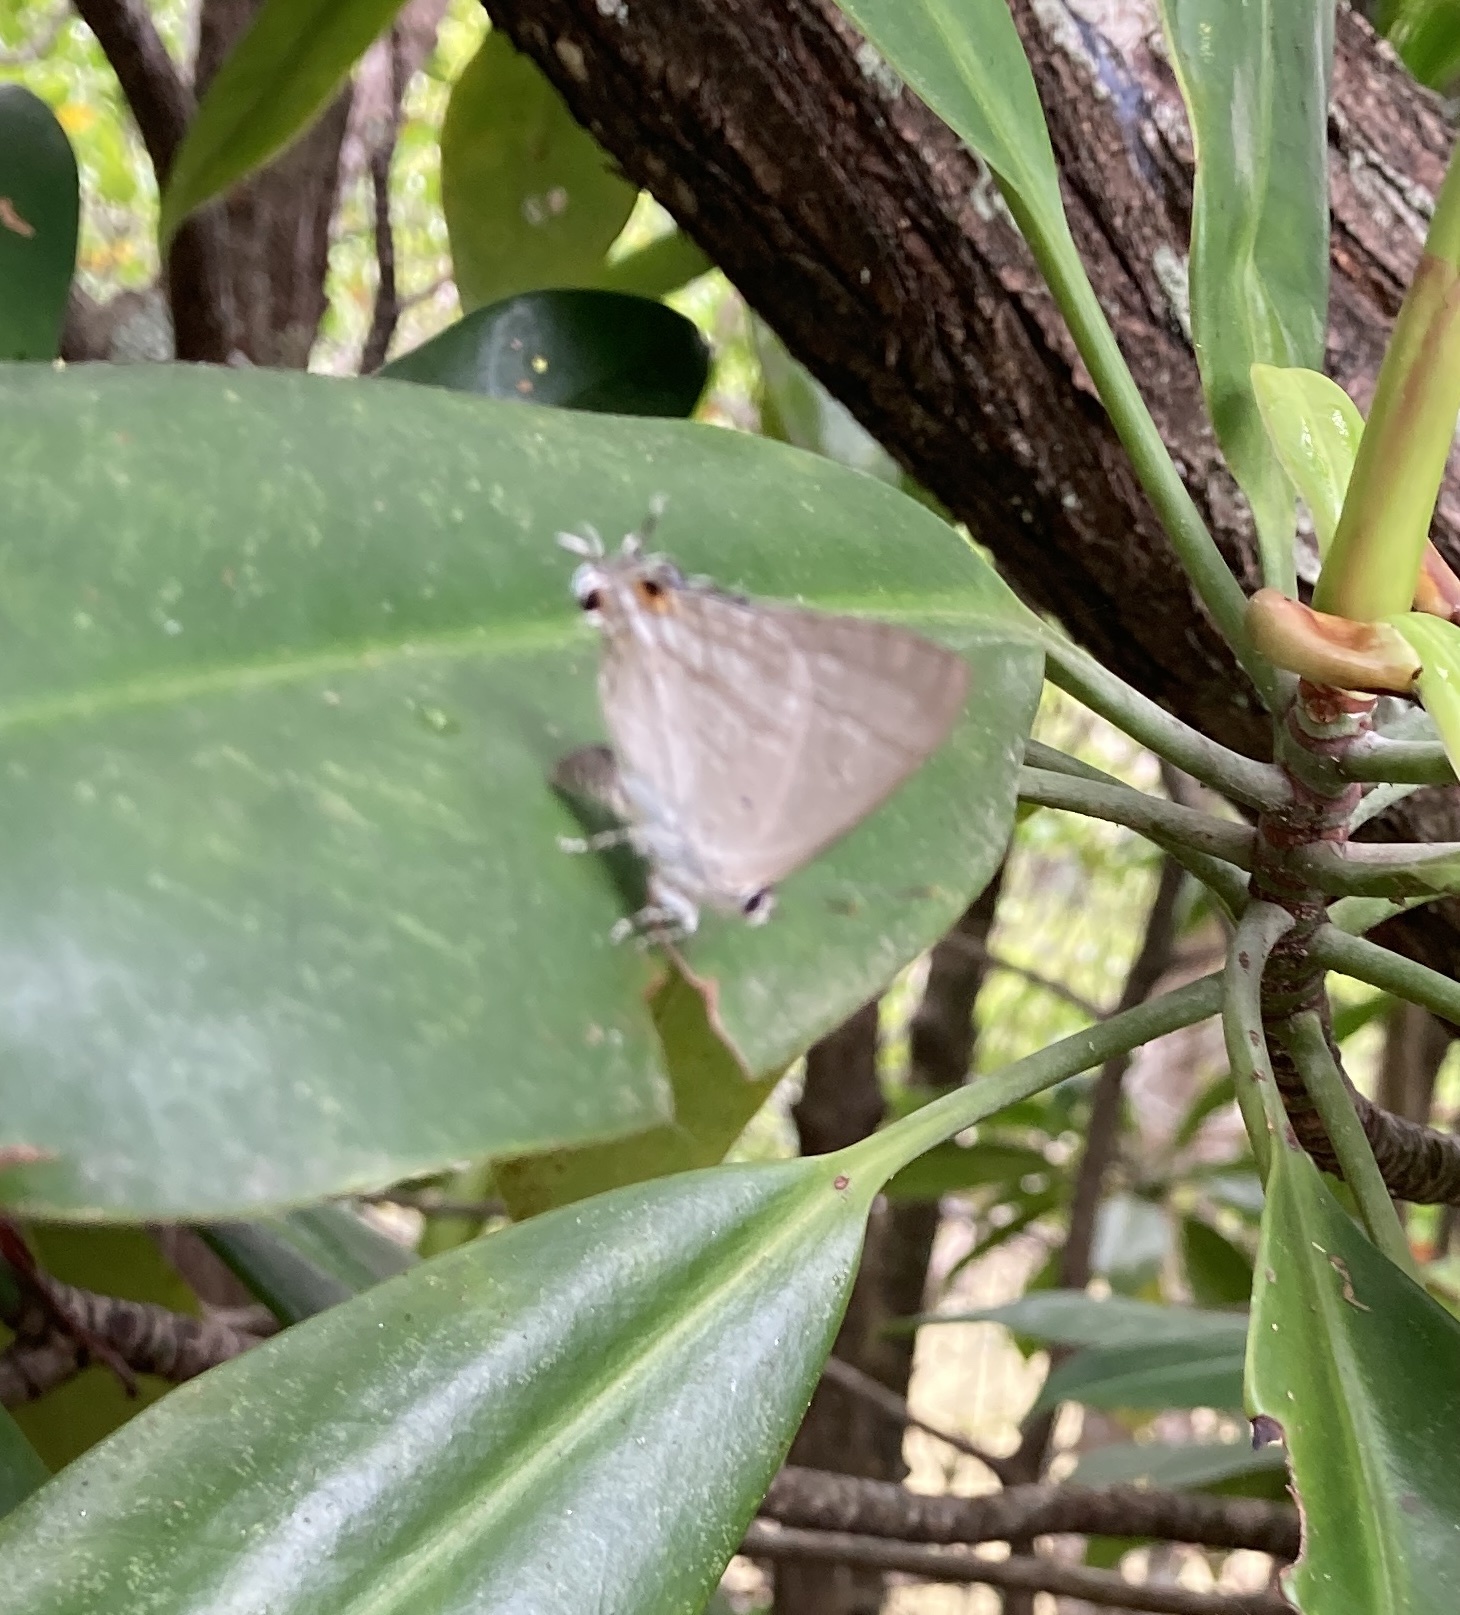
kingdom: Animalia
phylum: Arthropoda
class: Insecta
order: Lepidoptera
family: Lycaenidae
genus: Hypolycaena
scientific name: Hypolycaena phorbas
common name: Black-spotted flash
